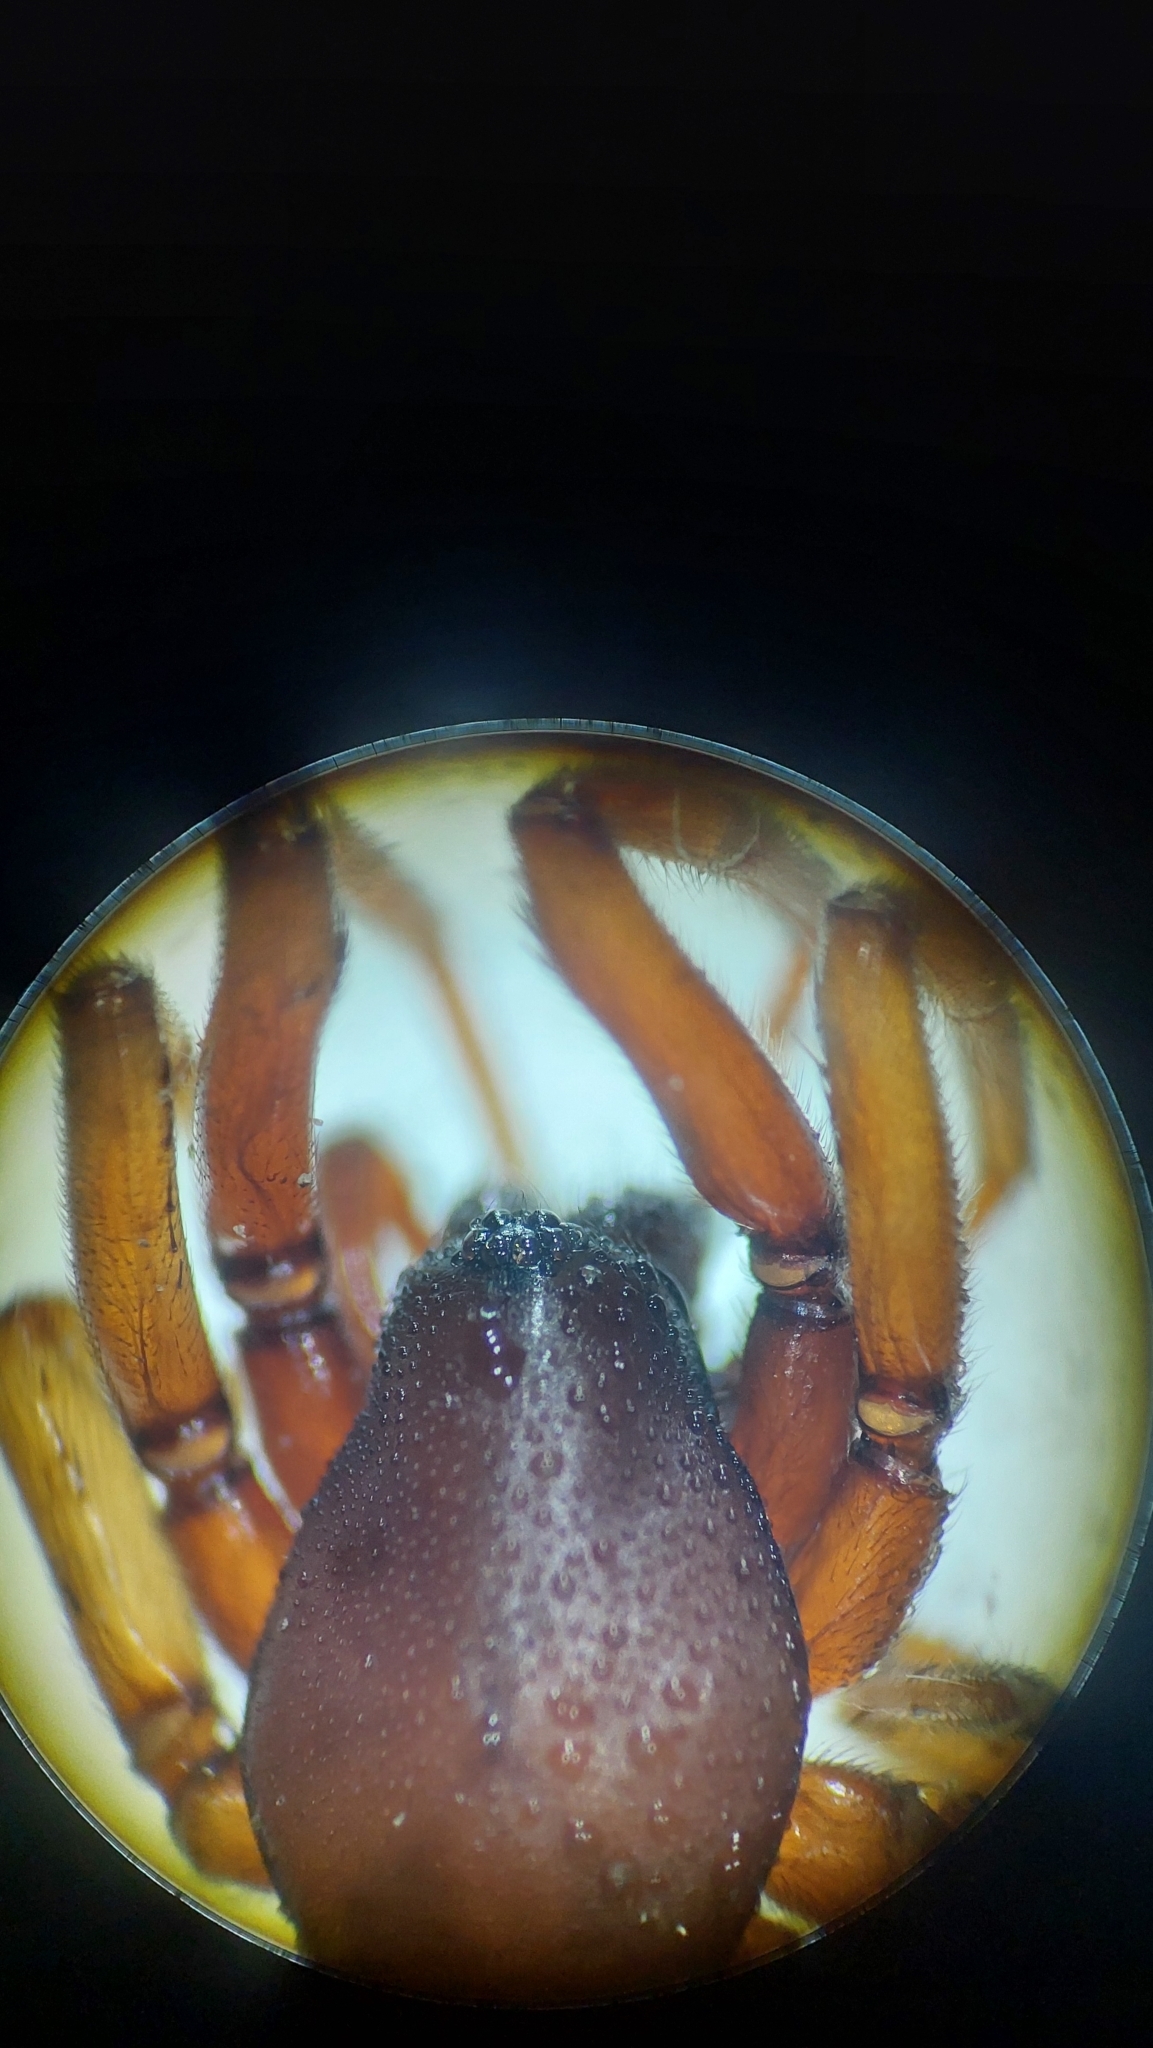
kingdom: Animalia
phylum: Arthropoda
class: Arachnida
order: Araneae
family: Dysderidae
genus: Harpactea
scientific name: Harpactea rubicunda
